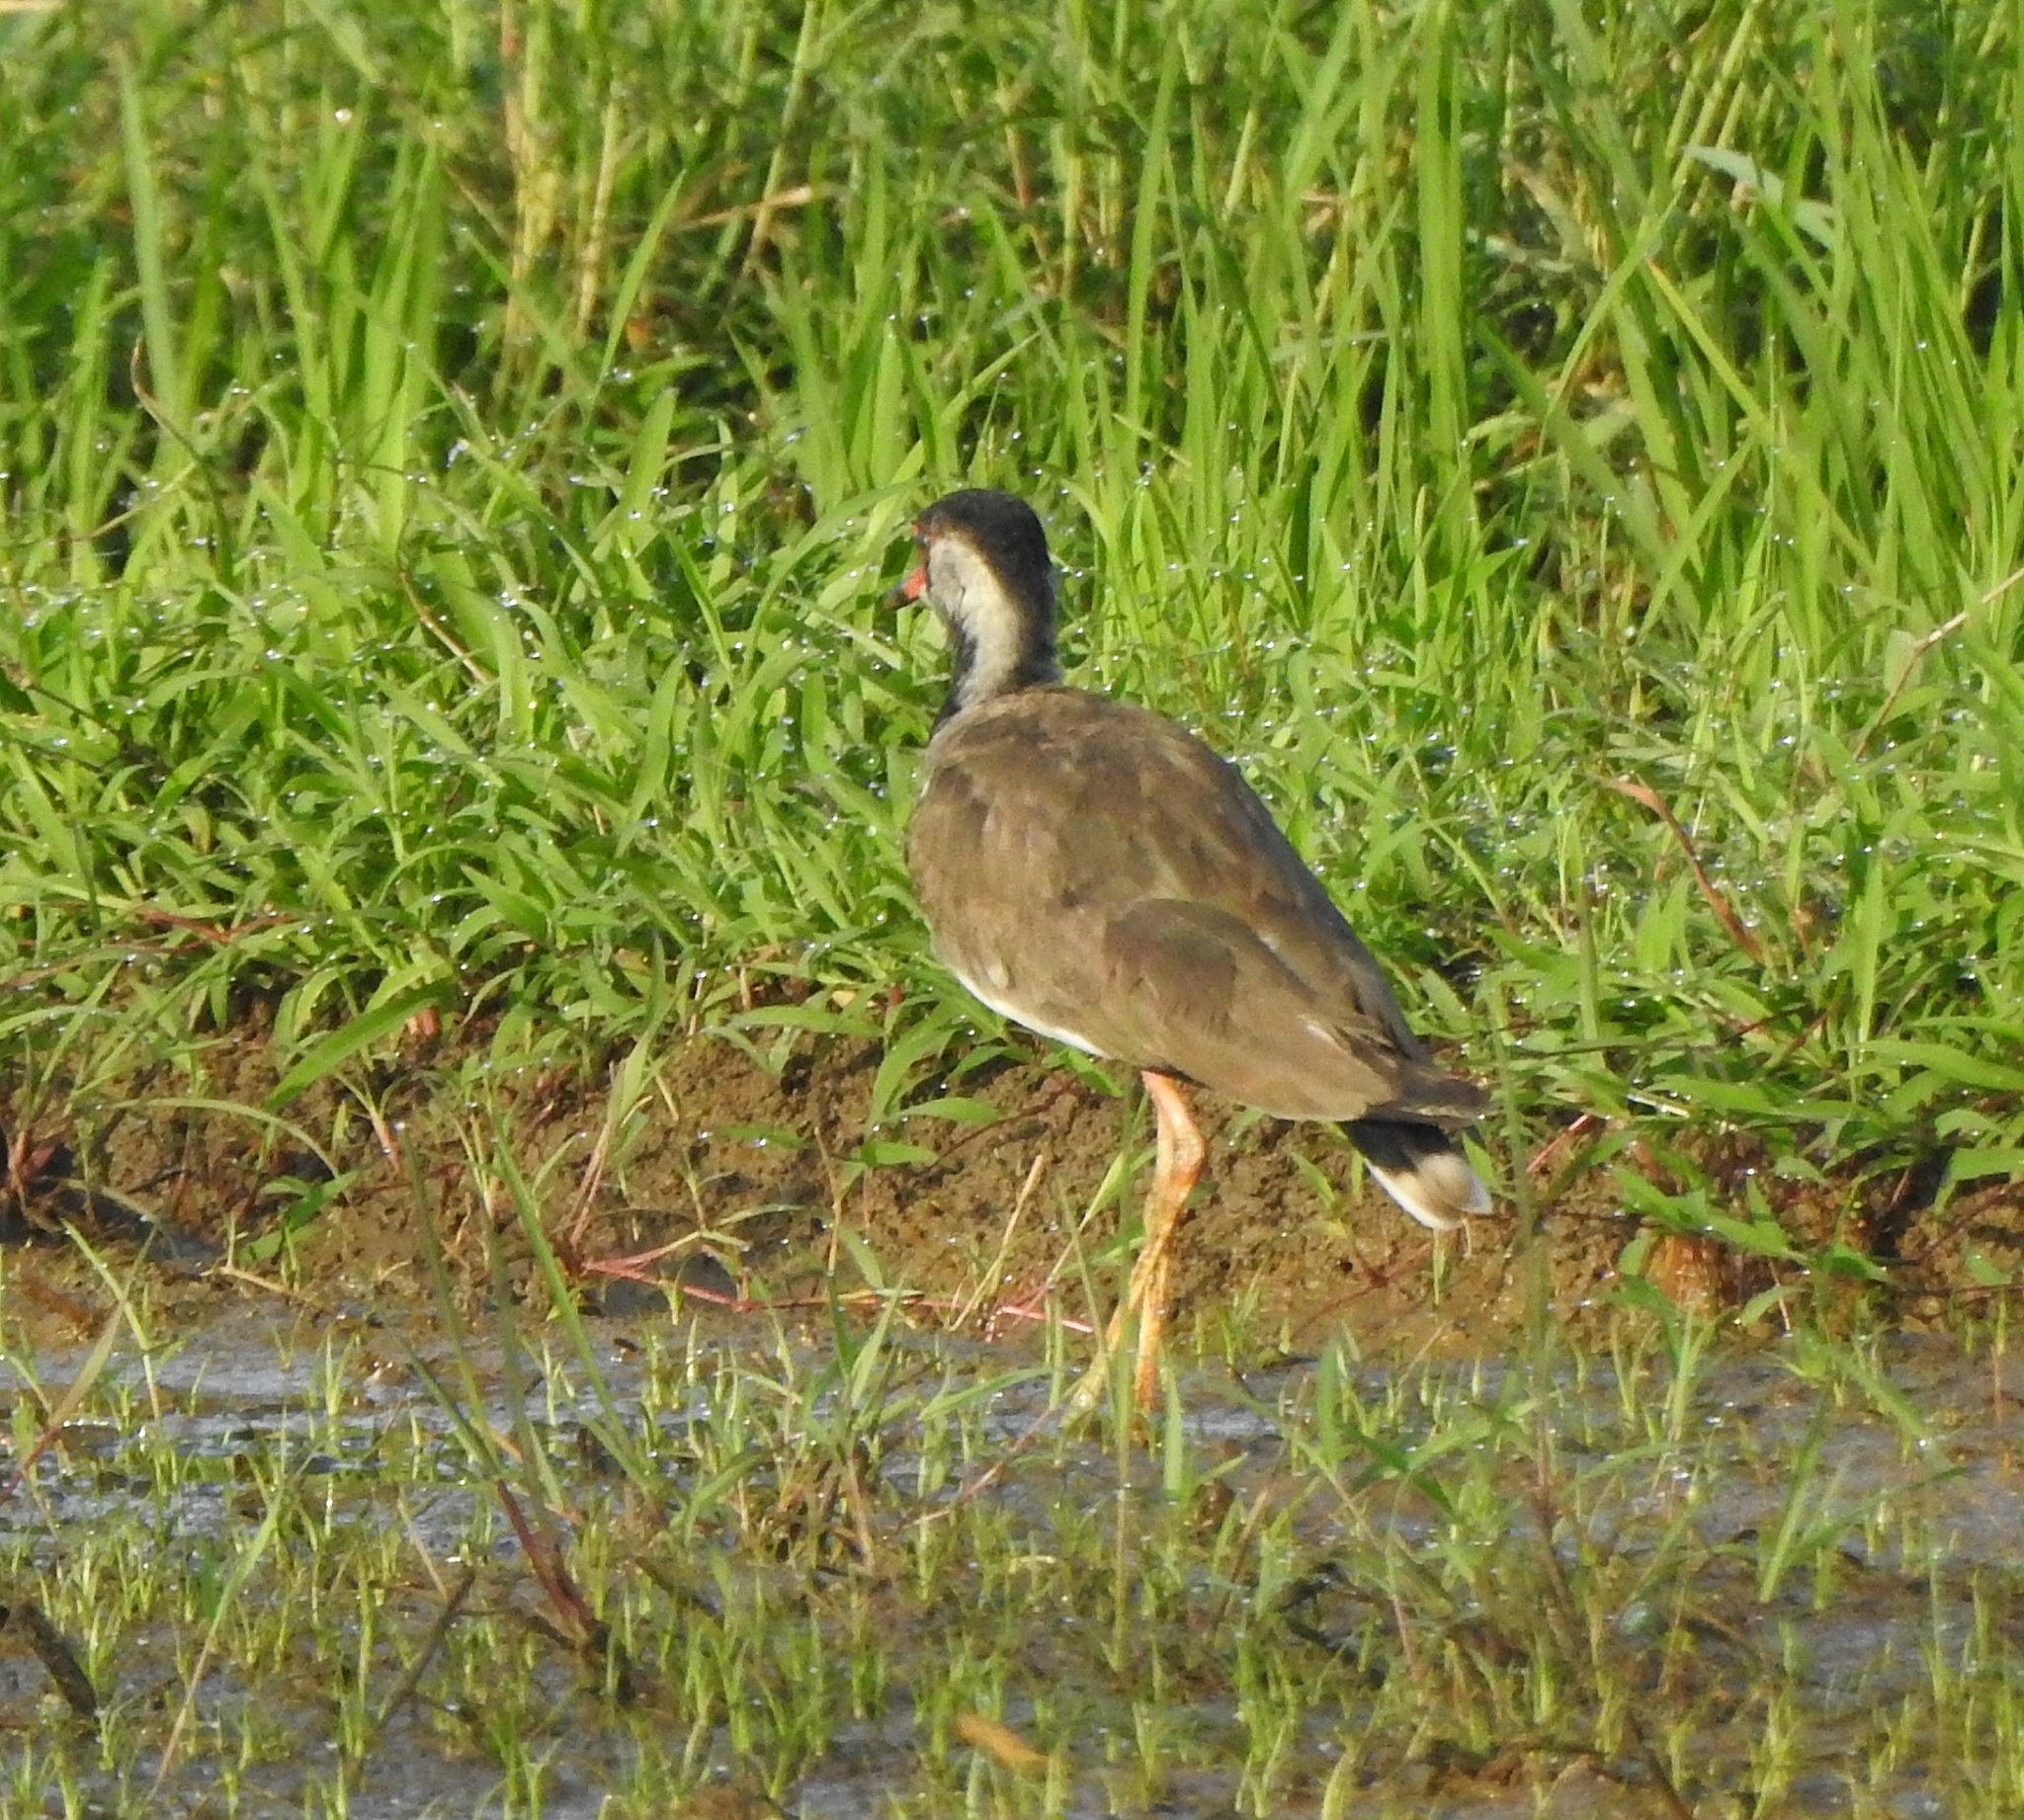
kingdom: Animalia
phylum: Chordata
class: Aves
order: Charadriiformes
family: Charadriidae
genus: Vanellus
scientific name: Vanellus indicus
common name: Red-wattled lapwing
